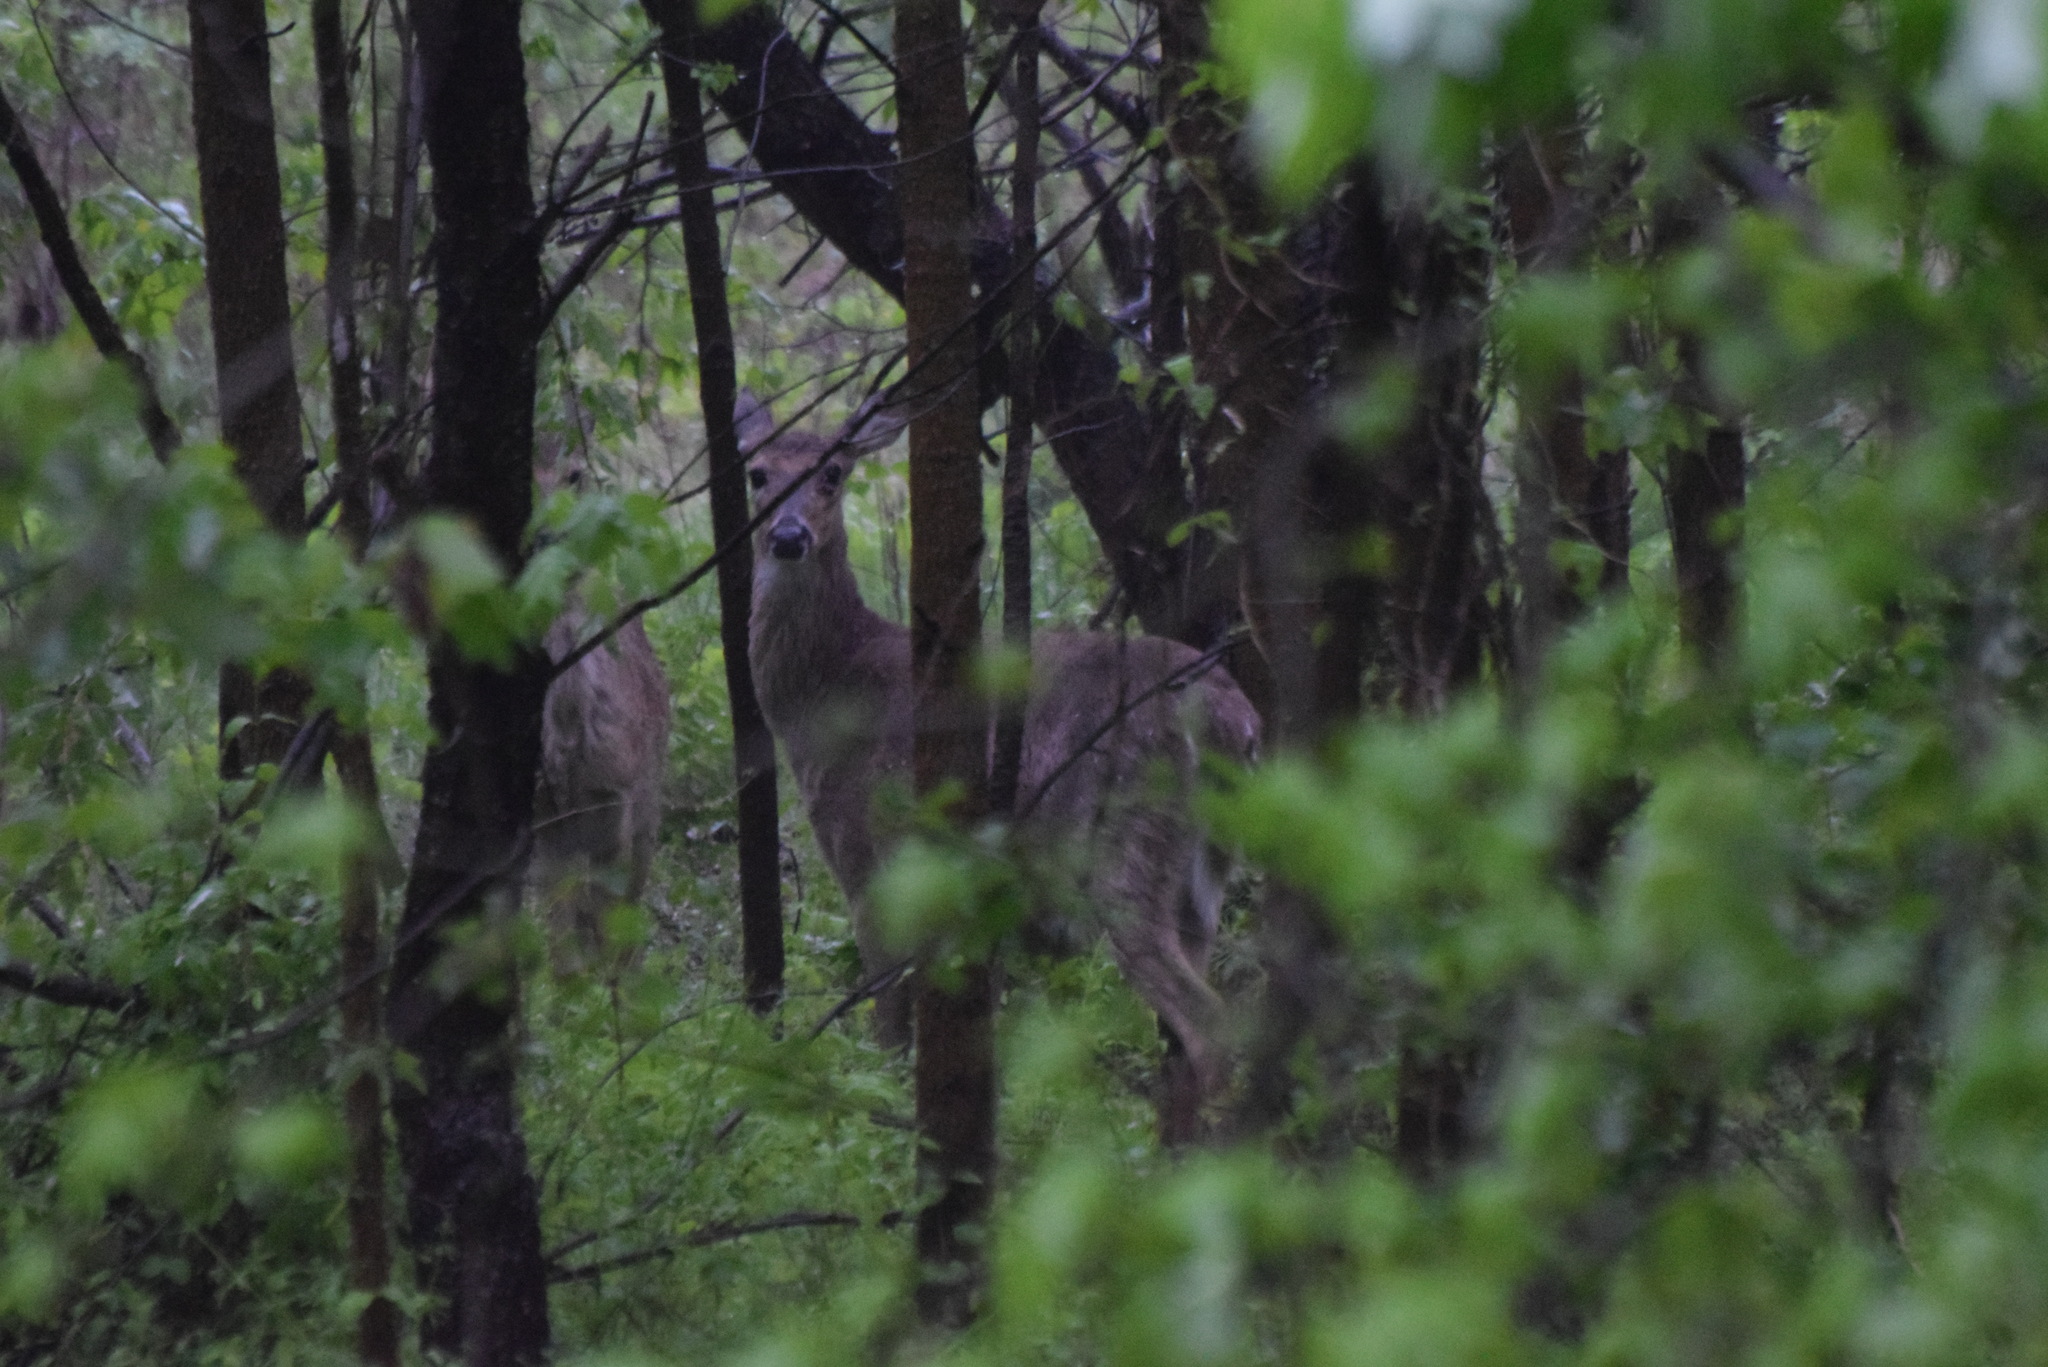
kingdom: Animalia
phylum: Chordata
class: Mammalia
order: Artiodactyla
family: Cervidae
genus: Odocoileus
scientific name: Odocoileus virginianus
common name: White-tailed deer
